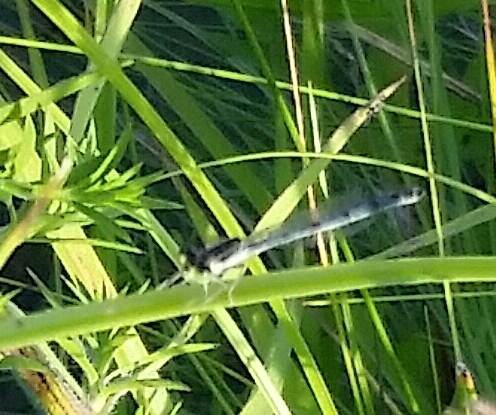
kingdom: Animalia
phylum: Arthropoda
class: Insecta
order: Odonata
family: Coenagrionidae
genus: Ischnura
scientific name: Ischnura verticalis
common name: Eastern forktail
